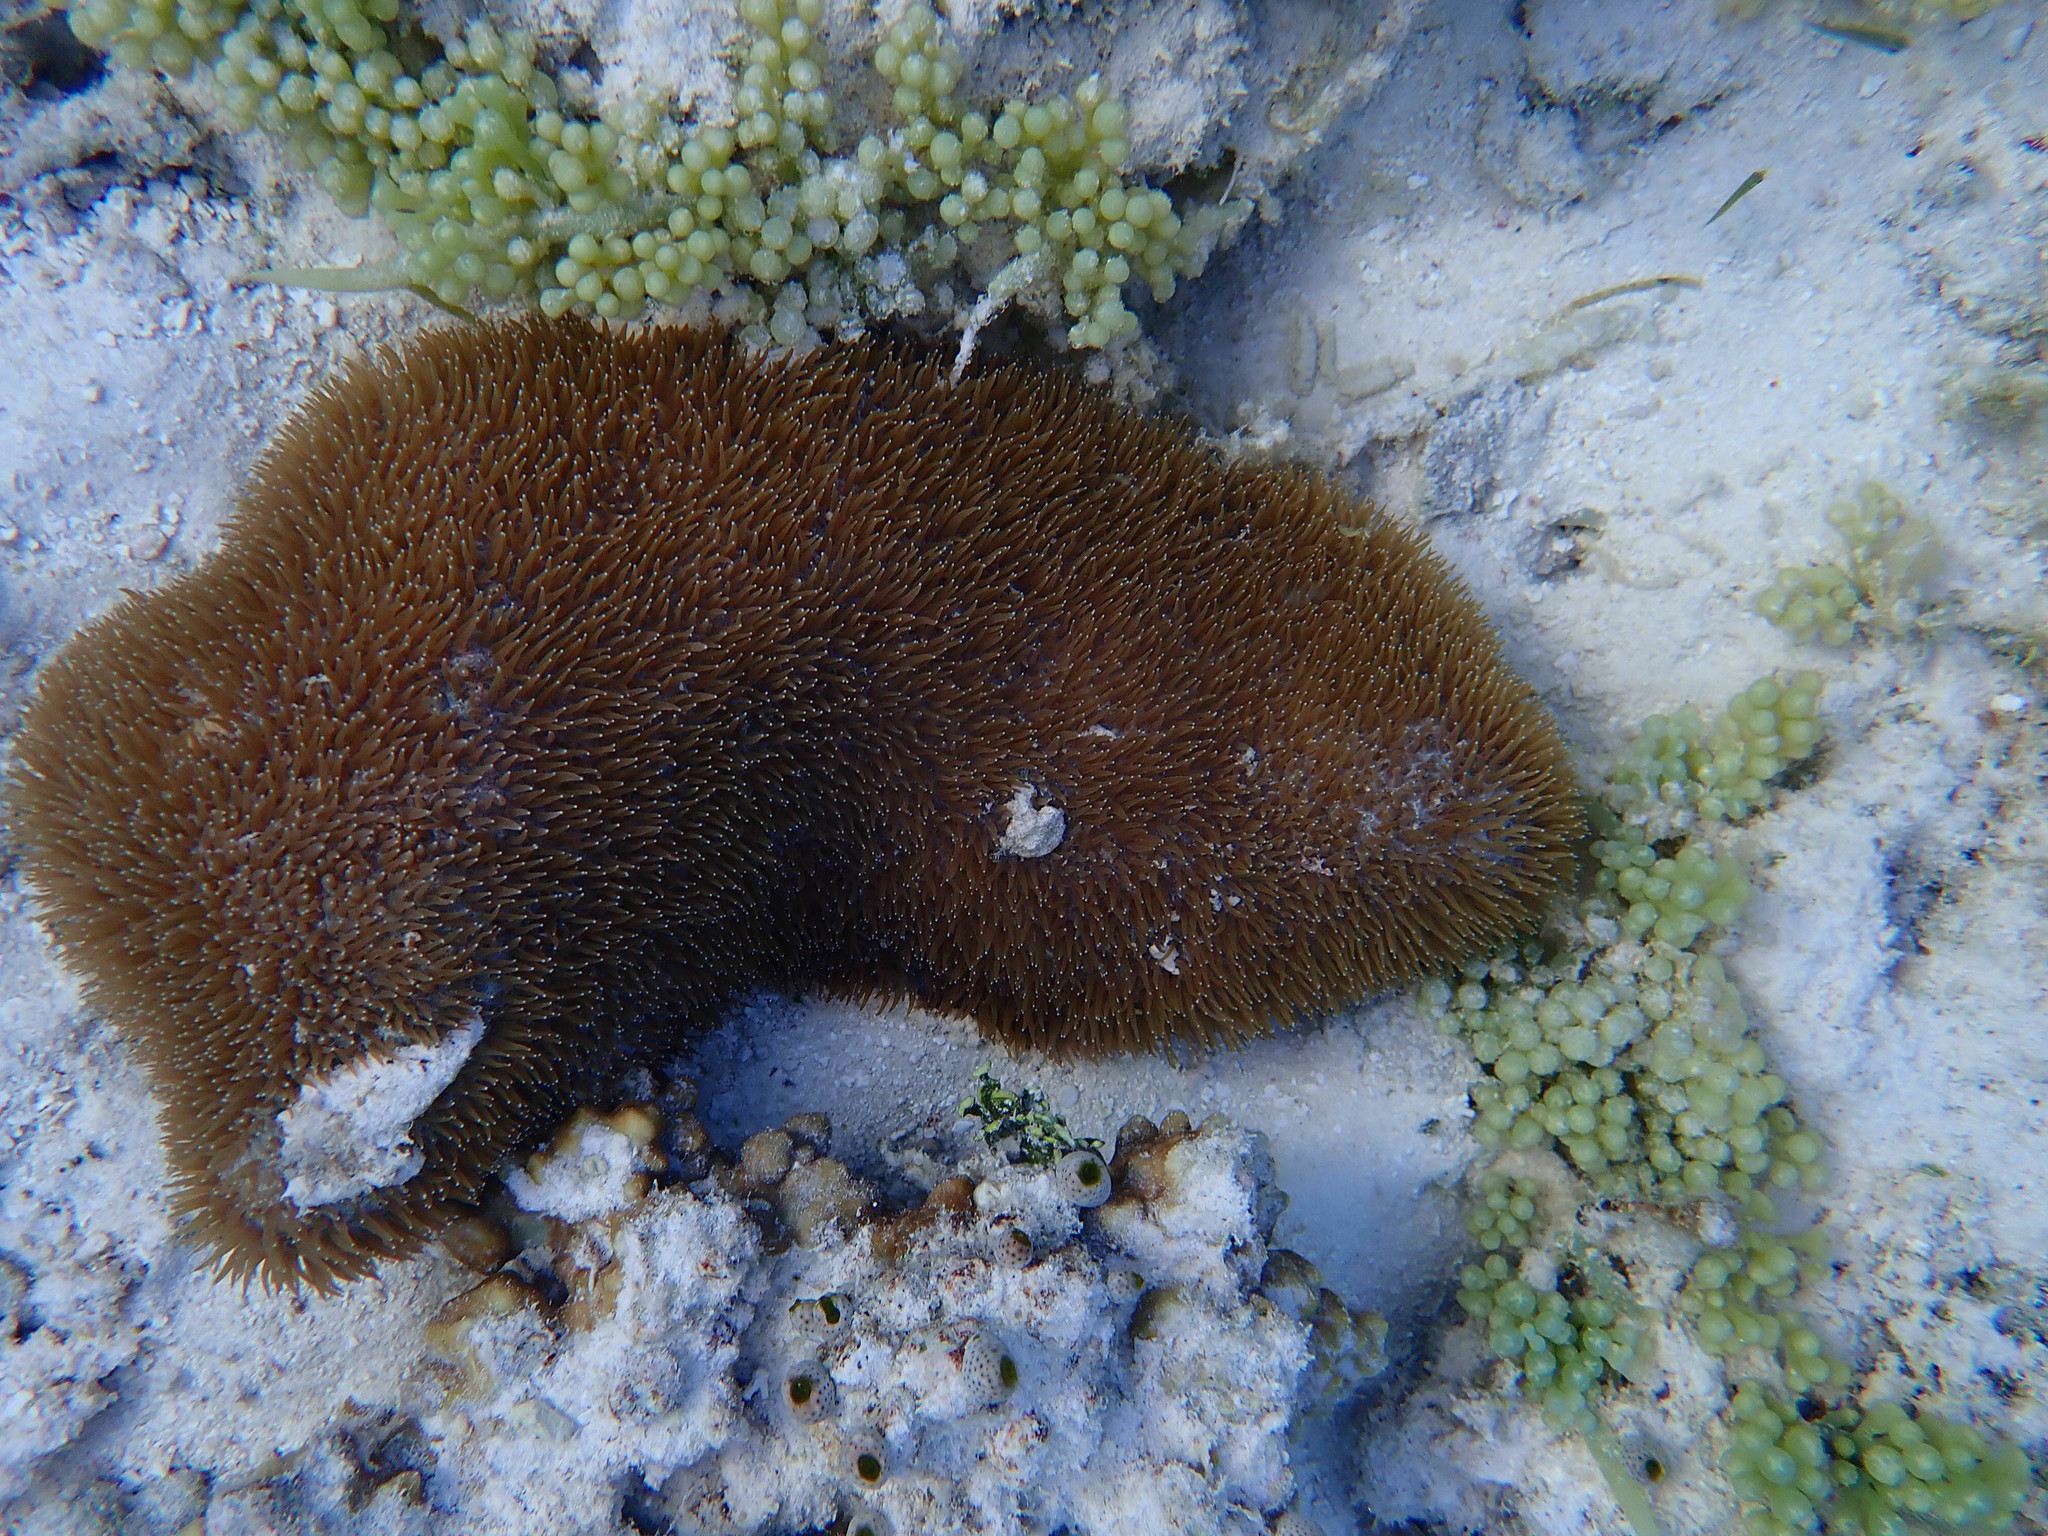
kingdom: Plantae
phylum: Chlorophyta
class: Ulvophyceae
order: Bryopsidales
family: Caulerpaceae
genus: Caulerpa
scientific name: Caulerpa racemosa
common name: Green grape algae
